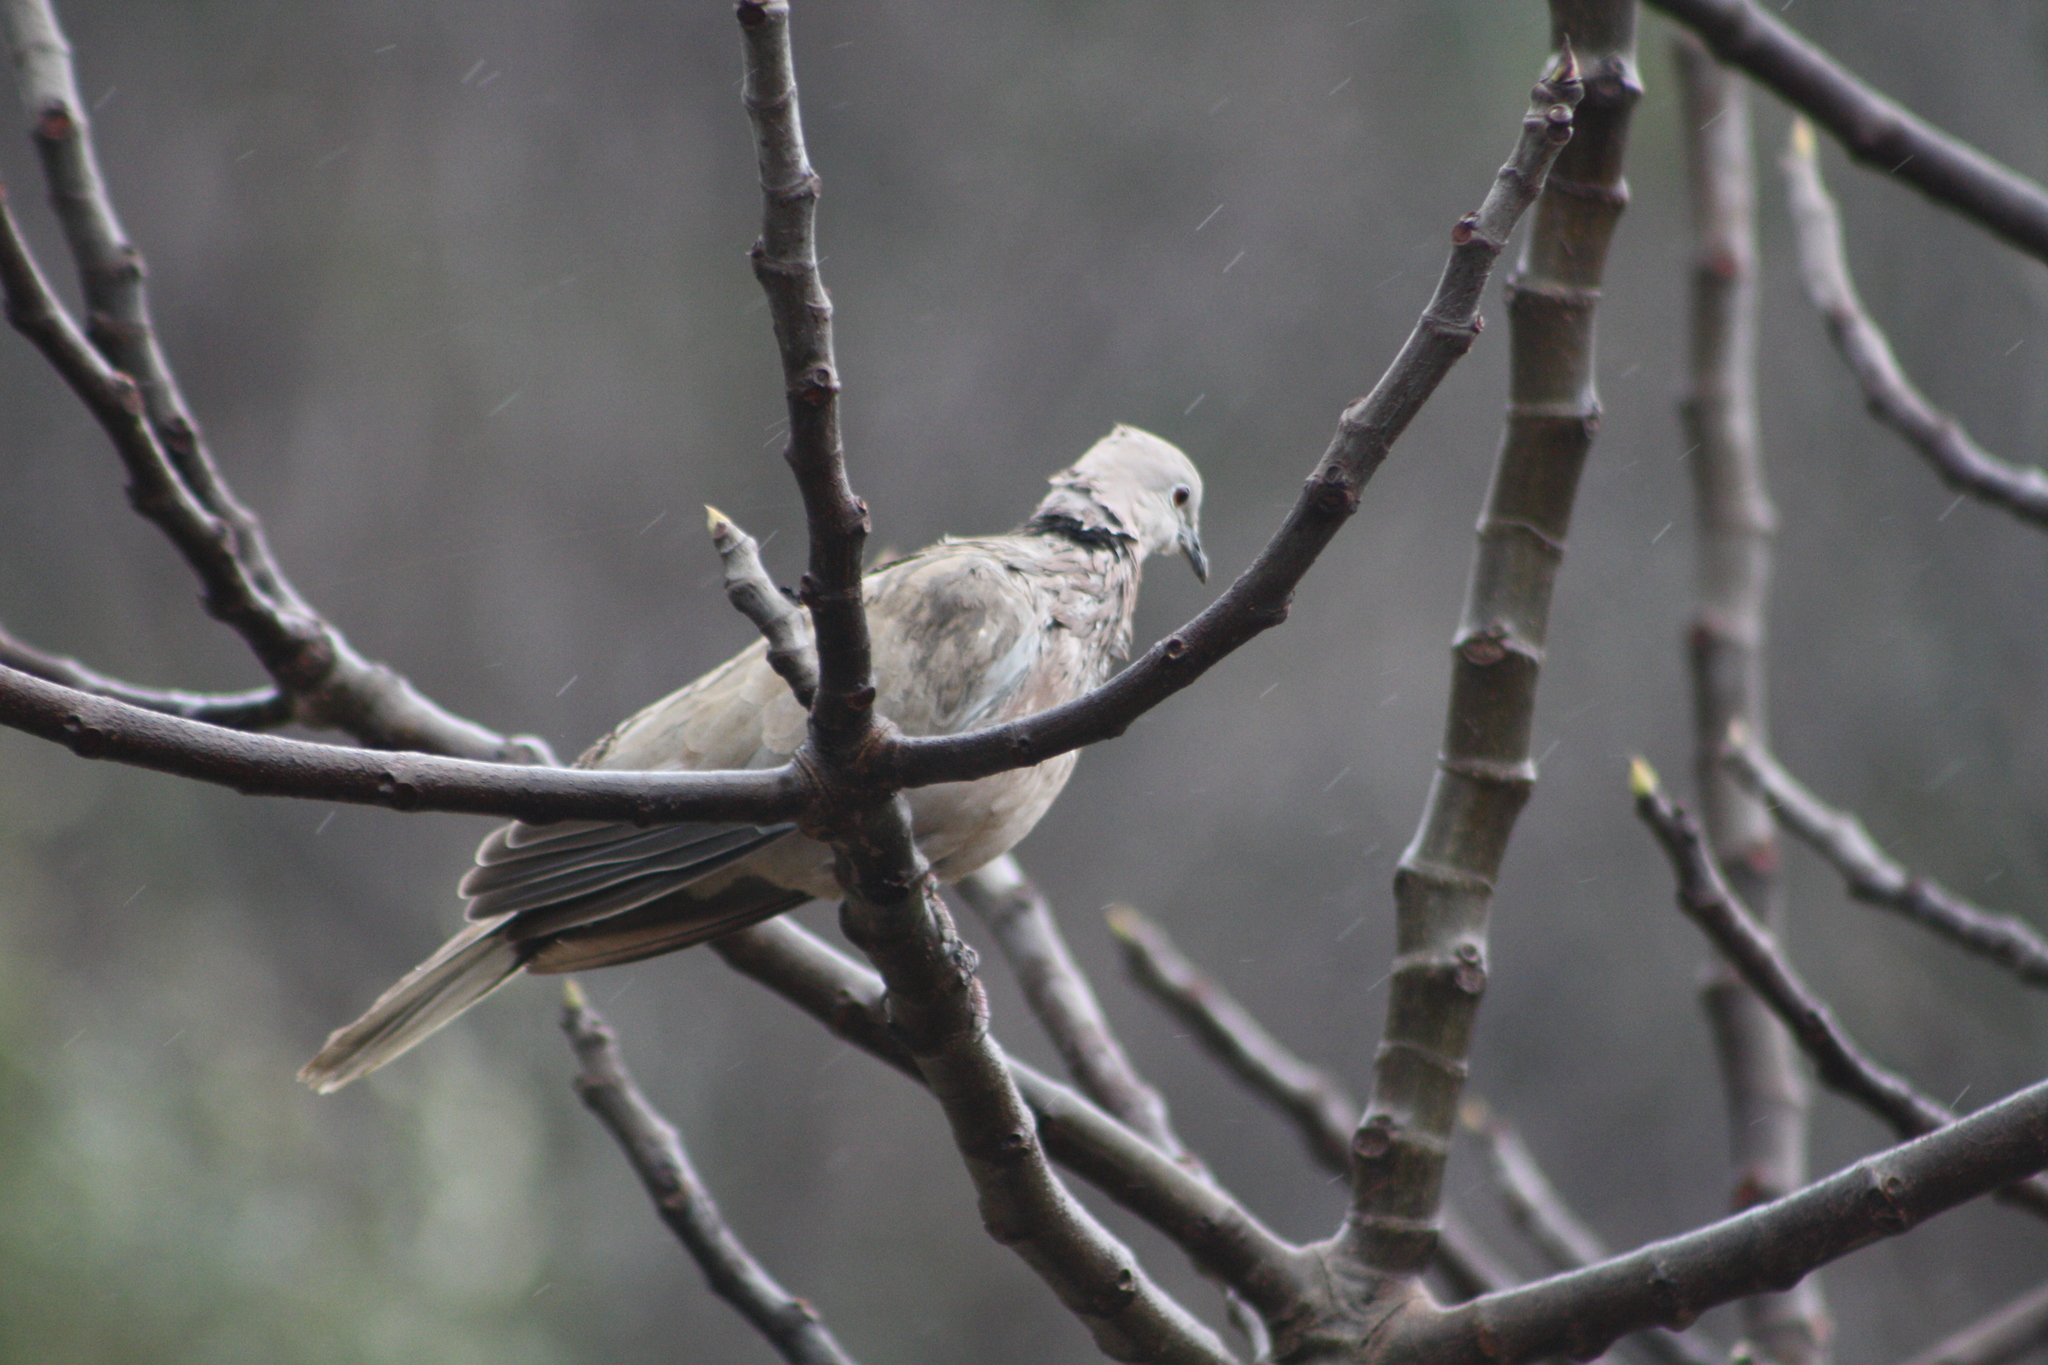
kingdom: Animalia
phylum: Chordata
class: Aves
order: Columbiformes
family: Columbidae
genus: Streptopelia
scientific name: Streptopelia decaocto
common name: Eurasian collared dove
